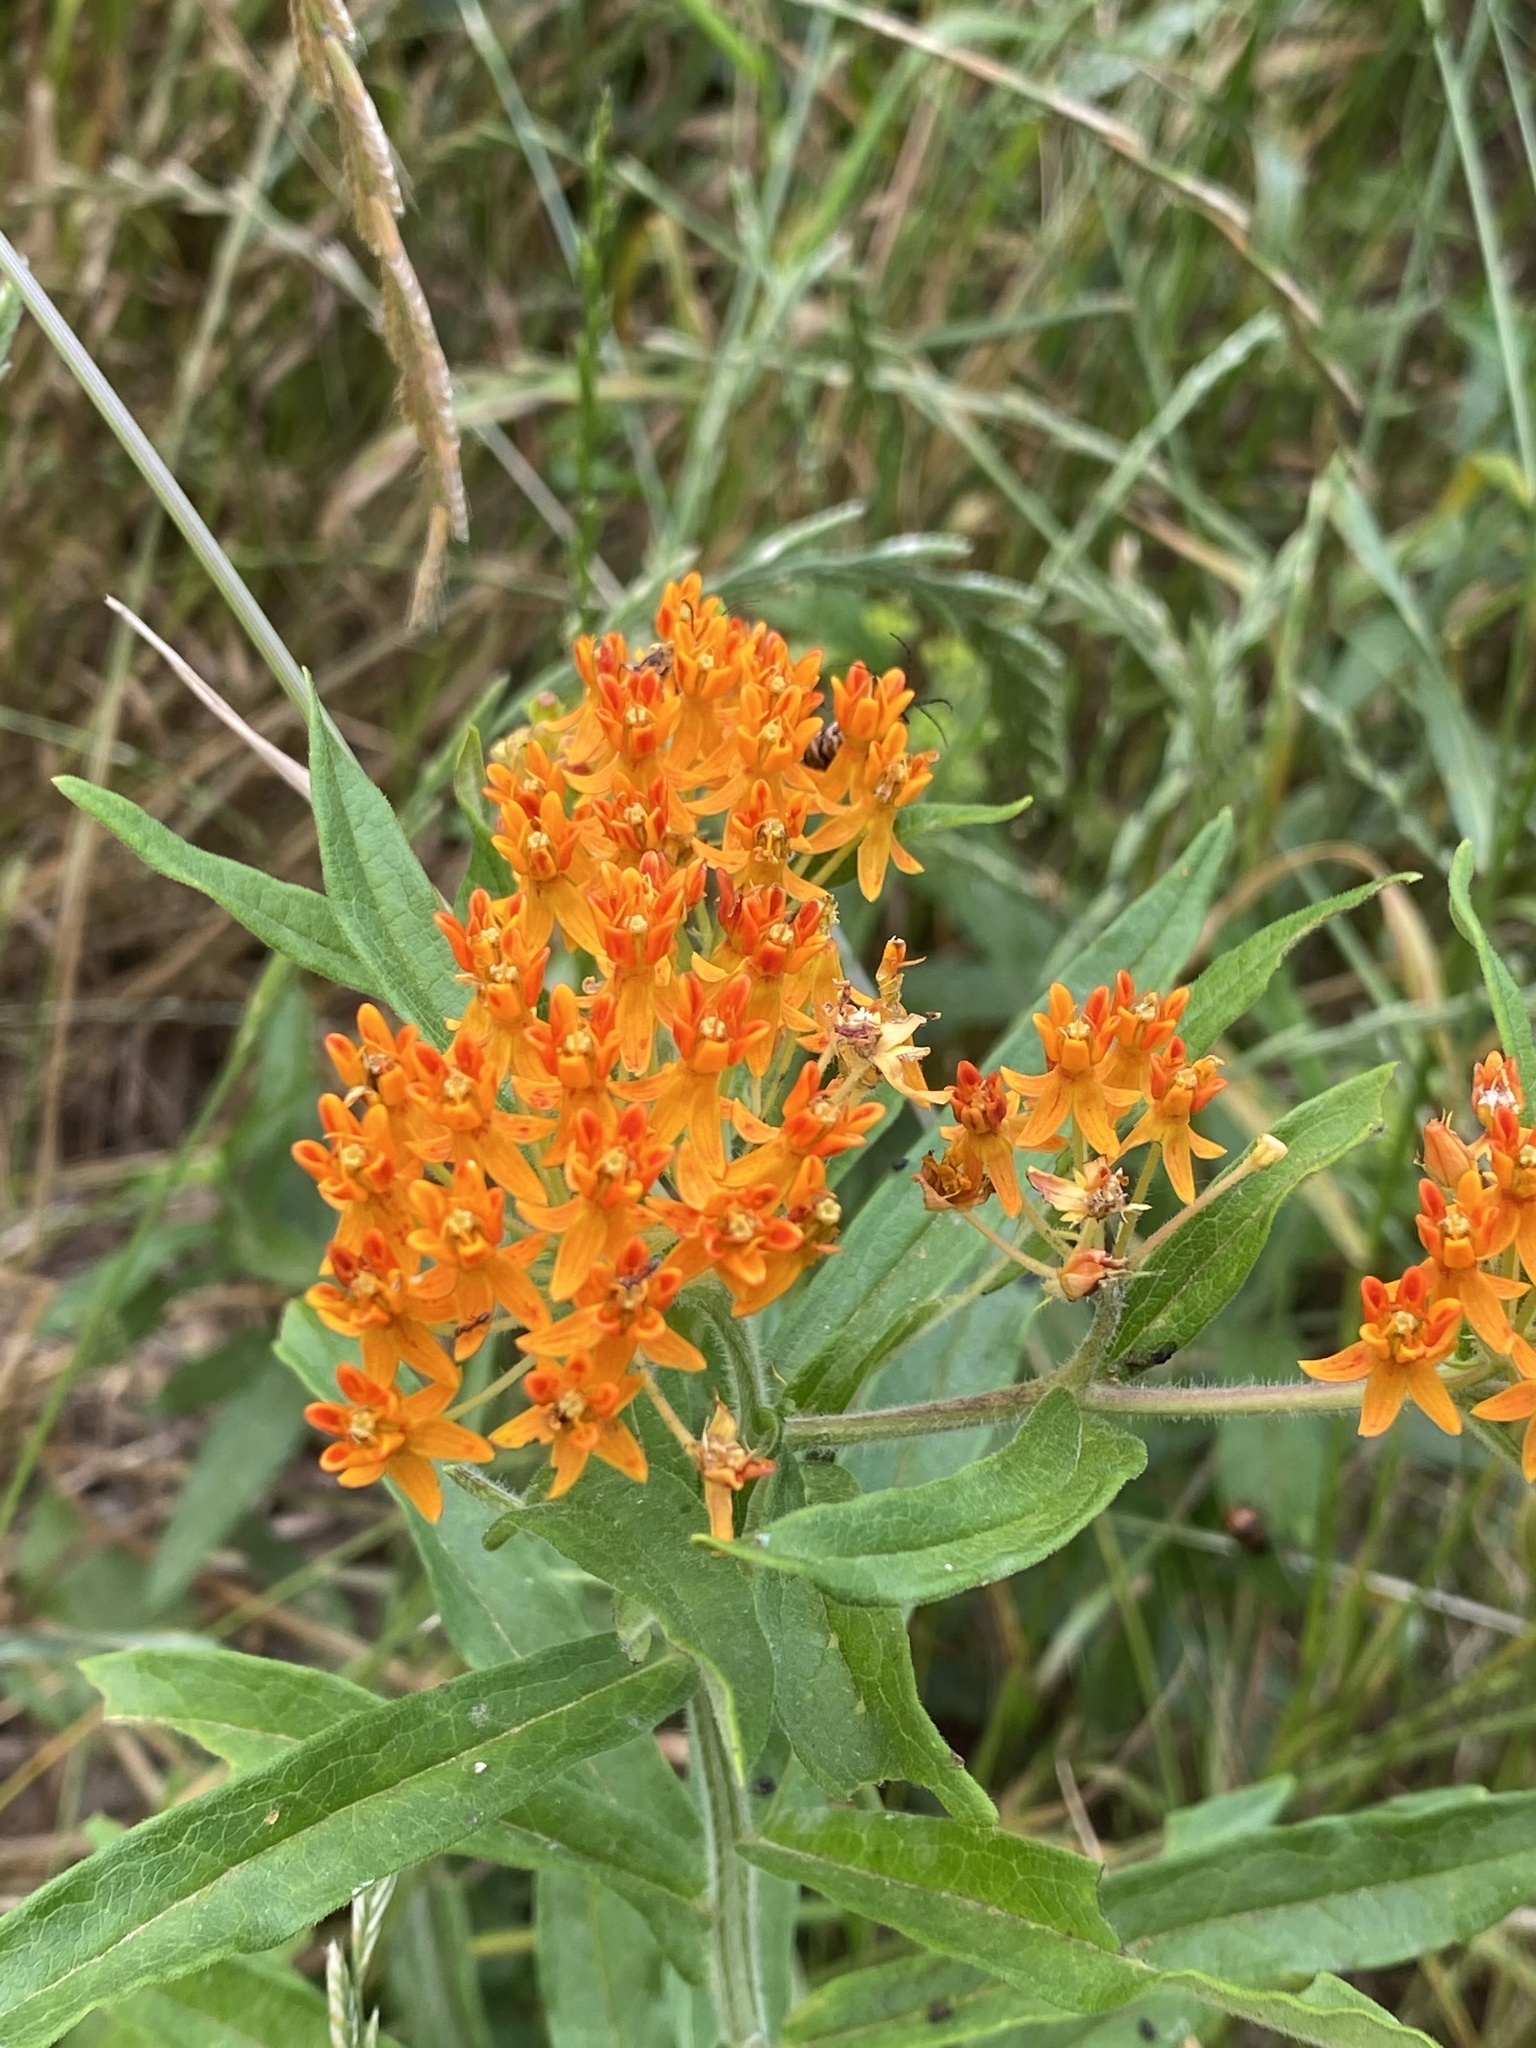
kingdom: Plantae
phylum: Tracheophyta
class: Magnoliopsida
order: Gentianales
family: Apocynaceae
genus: Asclepias
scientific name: Asclepias tuberosa
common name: Butterfly milkweed
